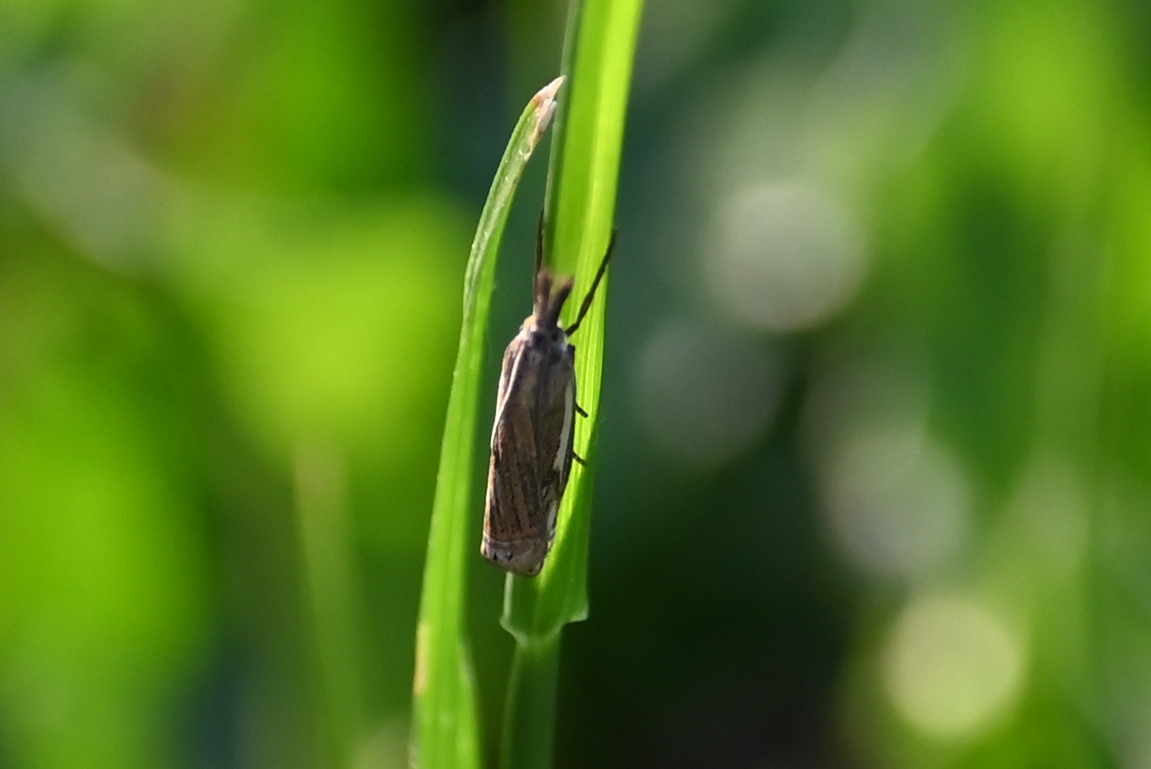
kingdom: Animalia
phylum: Arthropoda
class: Insecta
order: Lepidoptera
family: Crambidae
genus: Crambus
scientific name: Crambus nemorella
